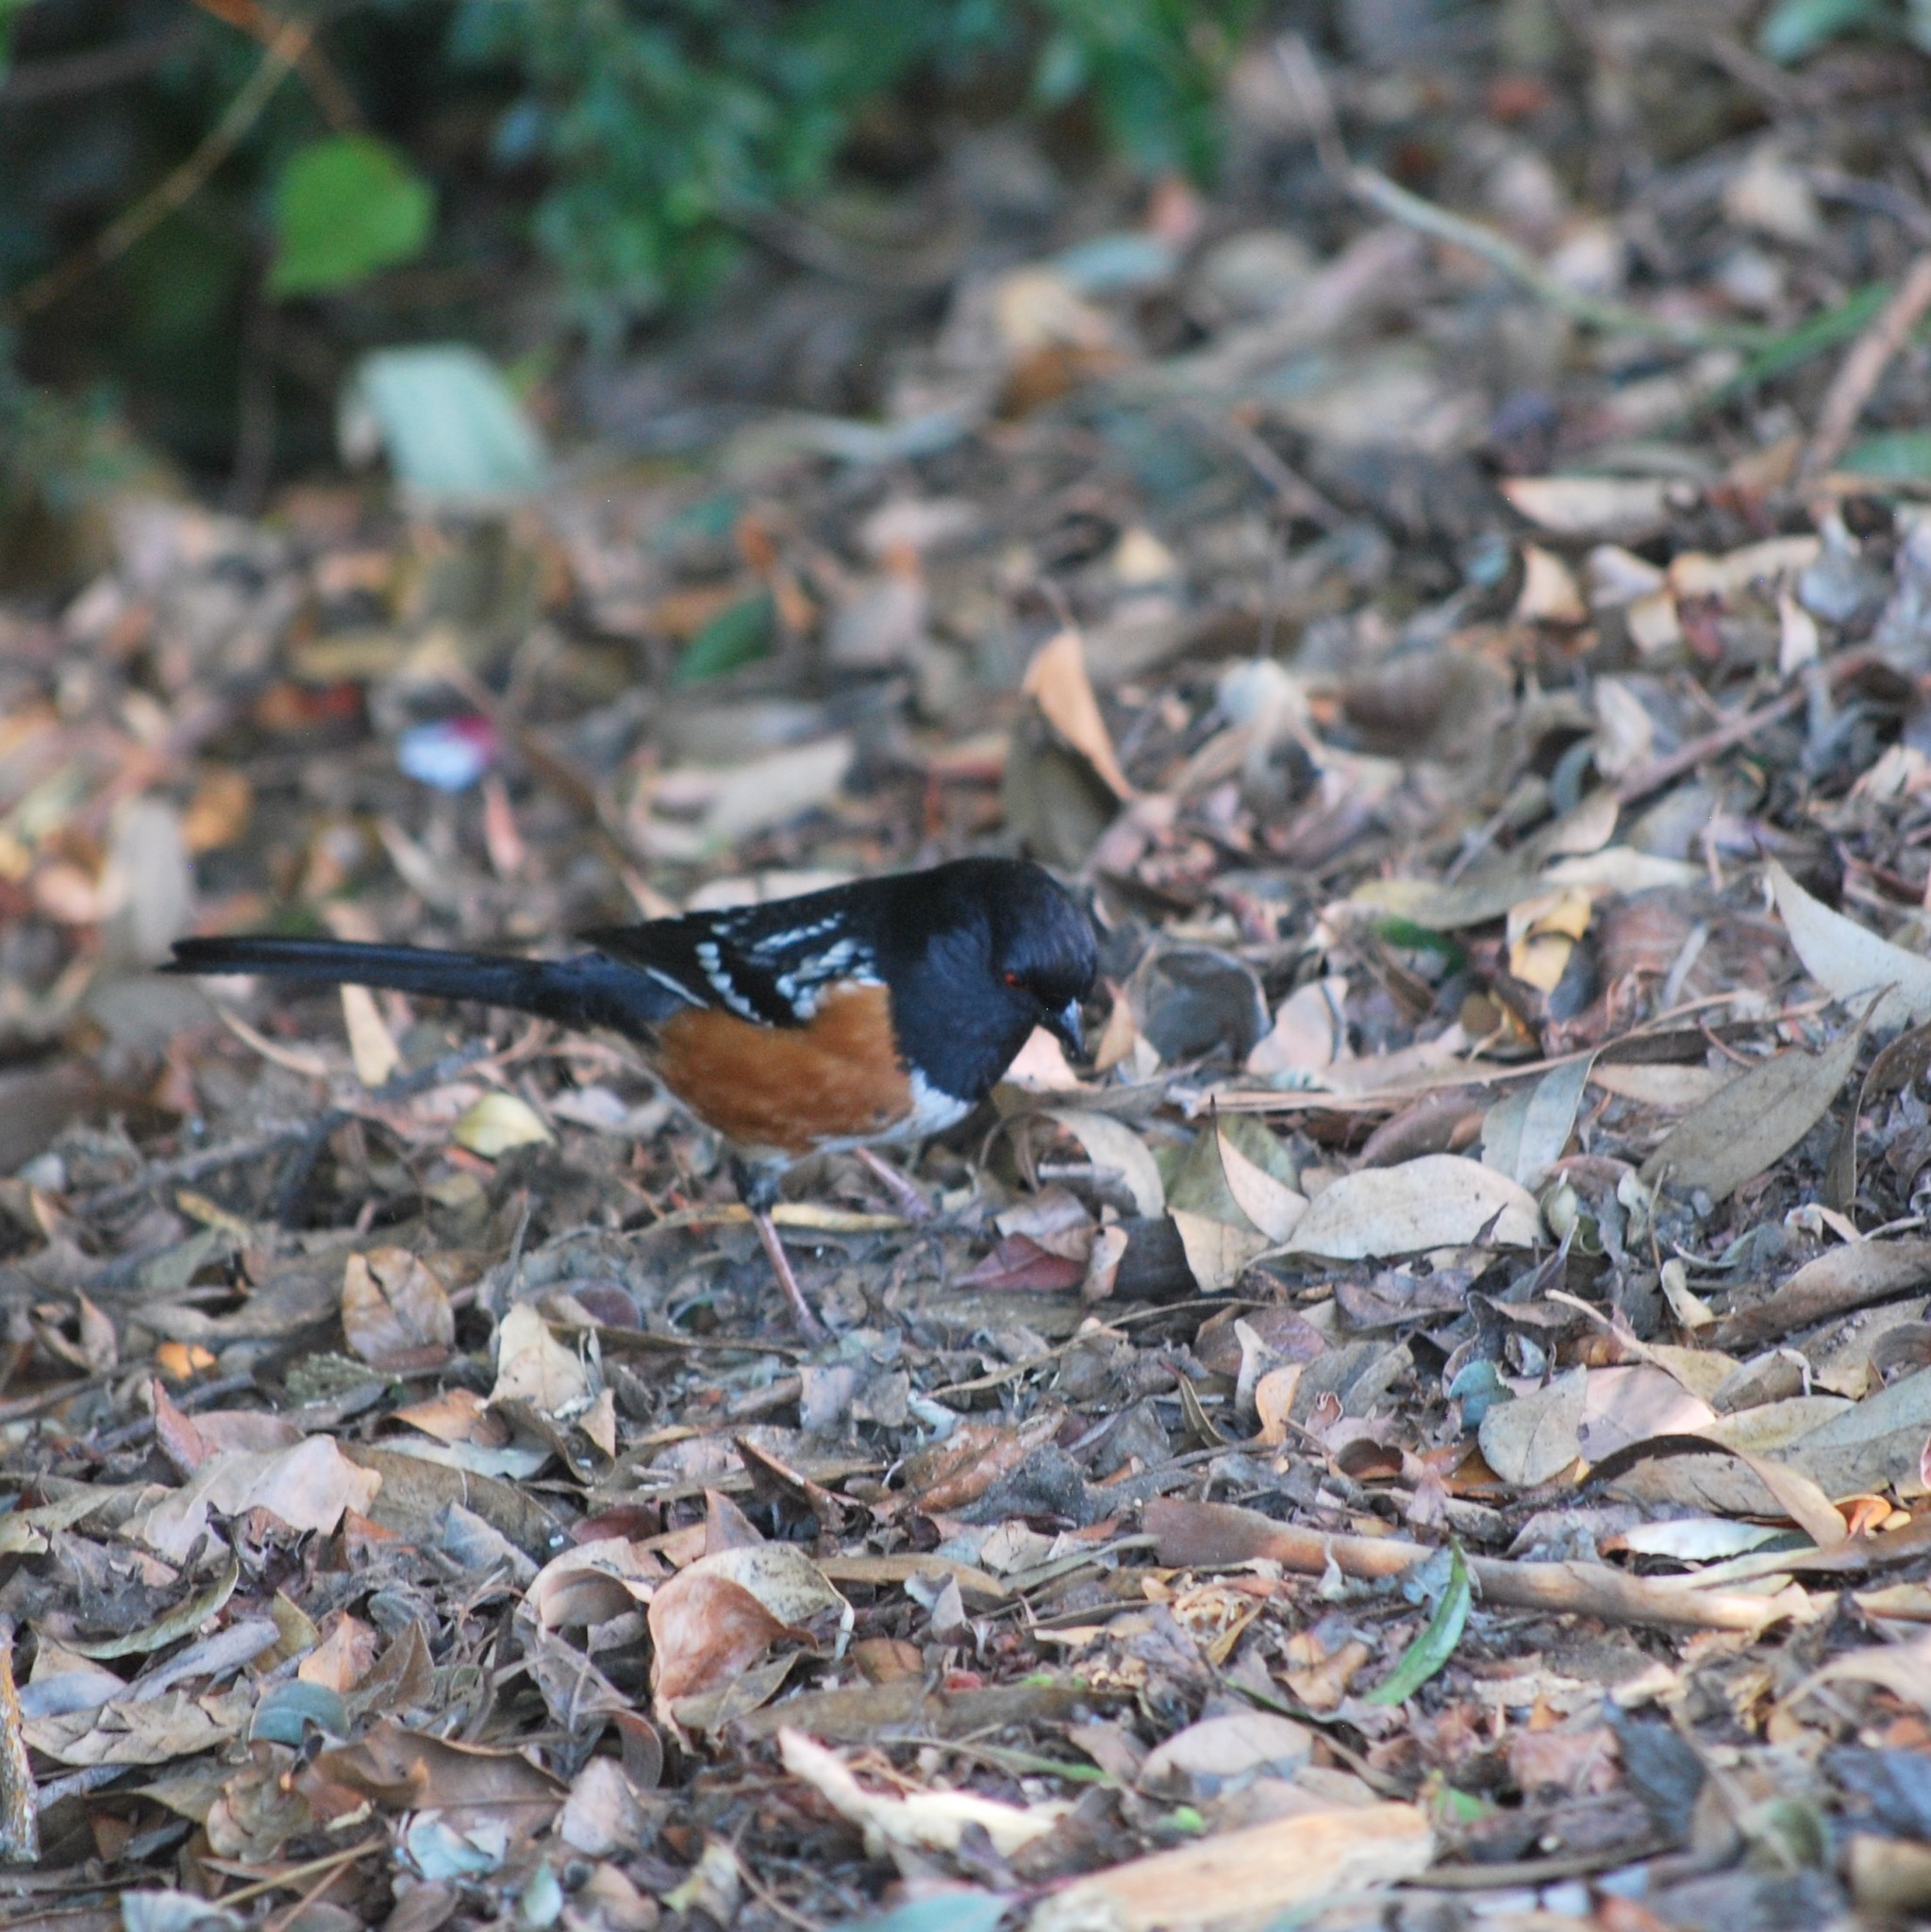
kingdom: Animalia
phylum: Chordata
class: Aves
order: Passeriformes
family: Passerellidae
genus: Pipilo
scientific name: Pipilo maculatus
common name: Spotted towhee
